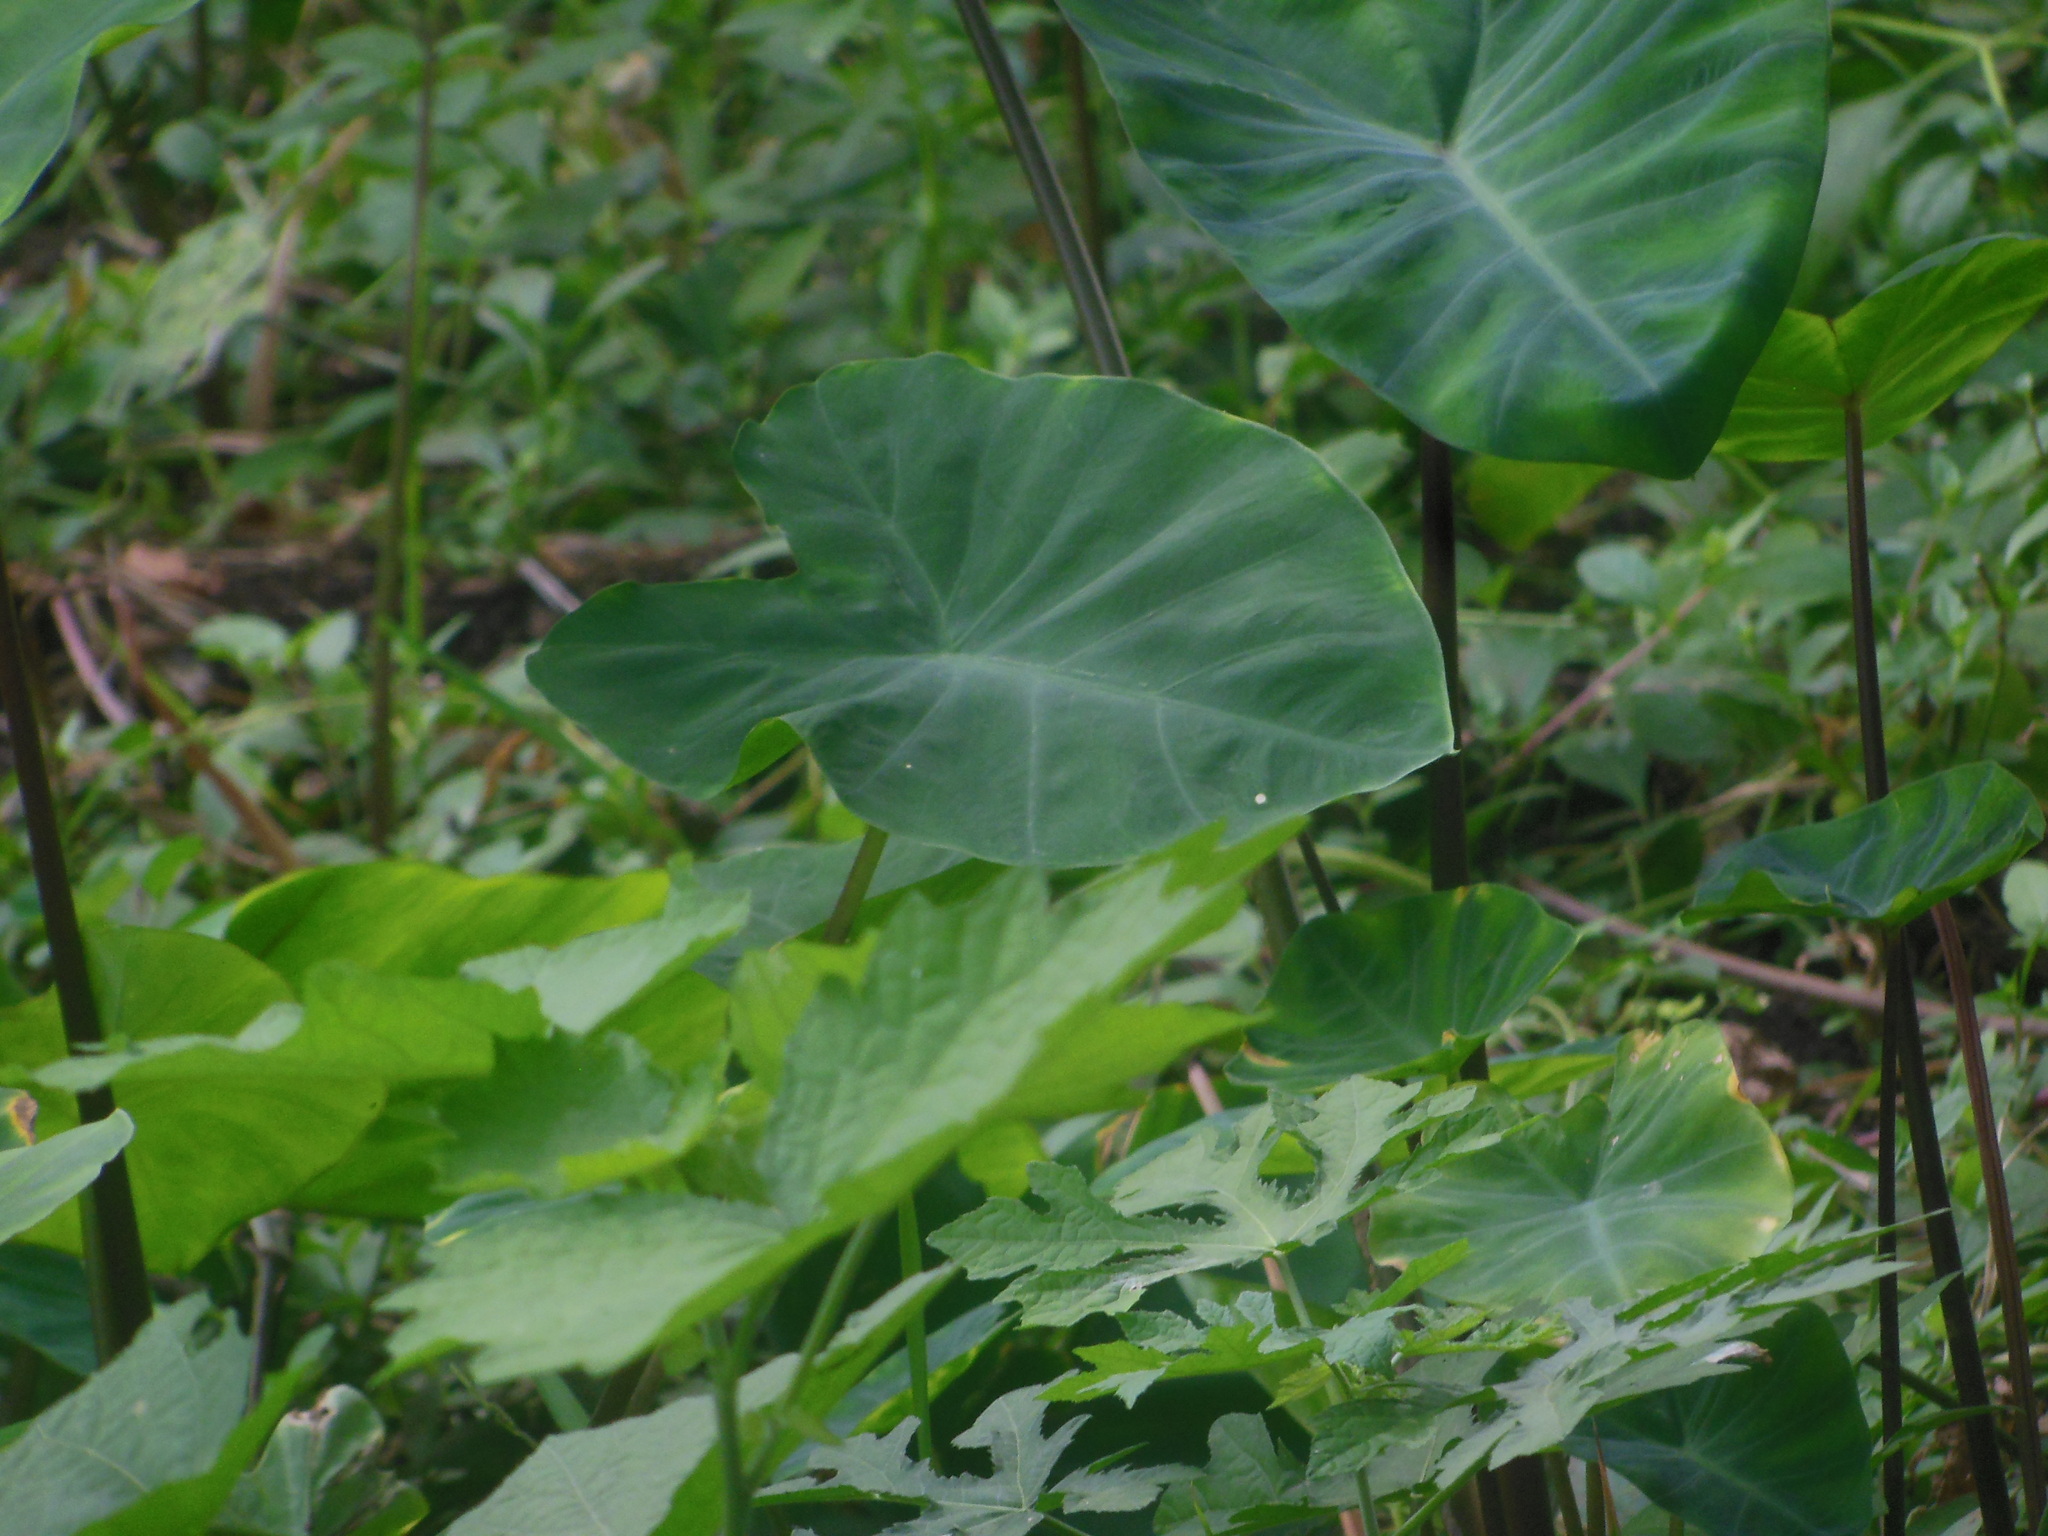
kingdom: Plantae
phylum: Tracheophyta
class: Liliopsida
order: Alismatales
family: Araceae
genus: Colocasia
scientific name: Colocasia esculenta
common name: Taro
